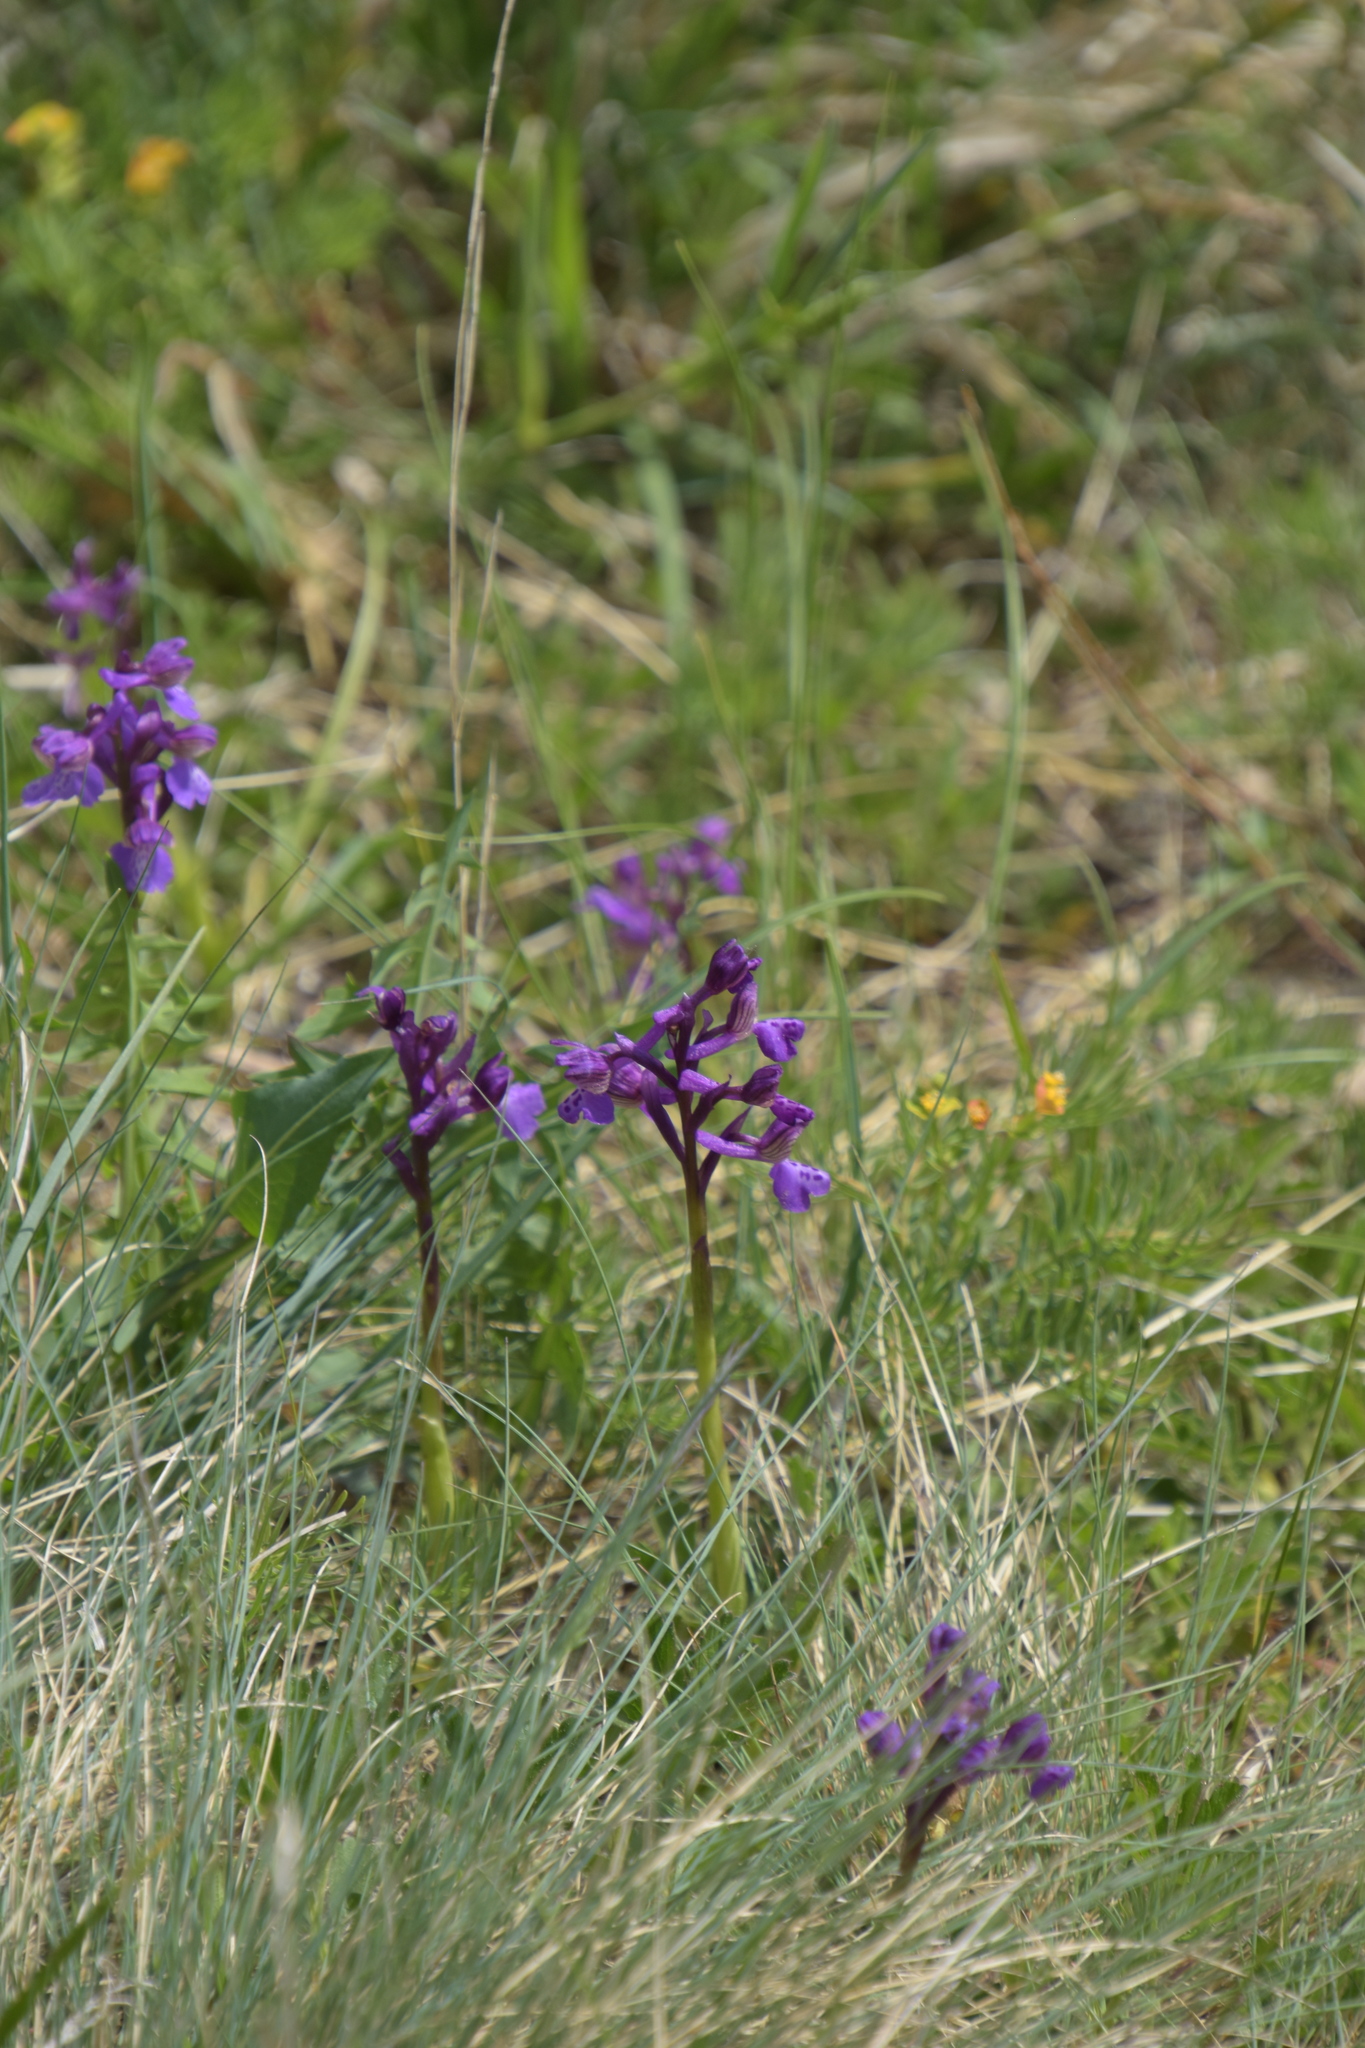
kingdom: Plantae
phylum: Tracheophyta
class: Liliopsida
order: Asparagales
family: Orchidaceae
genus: Anacamptis
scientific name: Anacamptis morio
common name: Green-winged orchid
